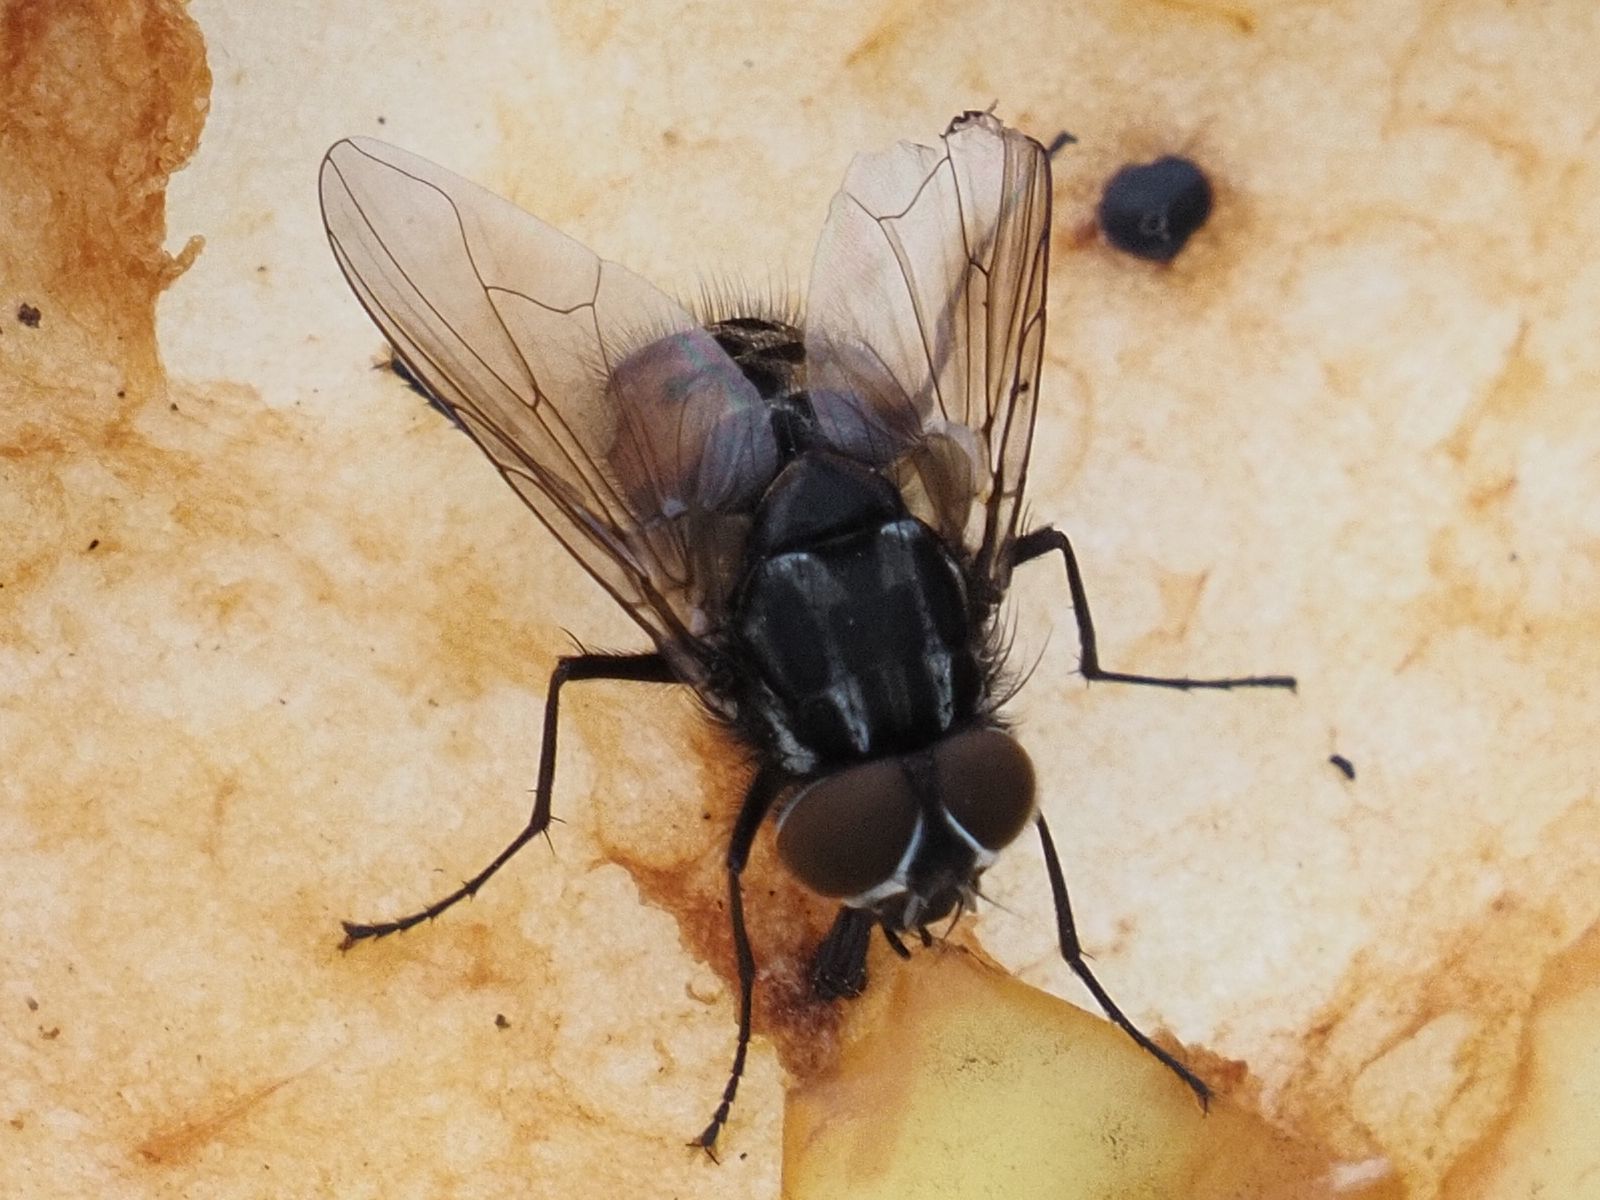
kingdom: Animalia
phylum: Arthropoda
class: Insecta
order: Diptera
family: Muscidae
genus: Graphomya
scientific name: Graphomya maculata
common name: Muscid fly
